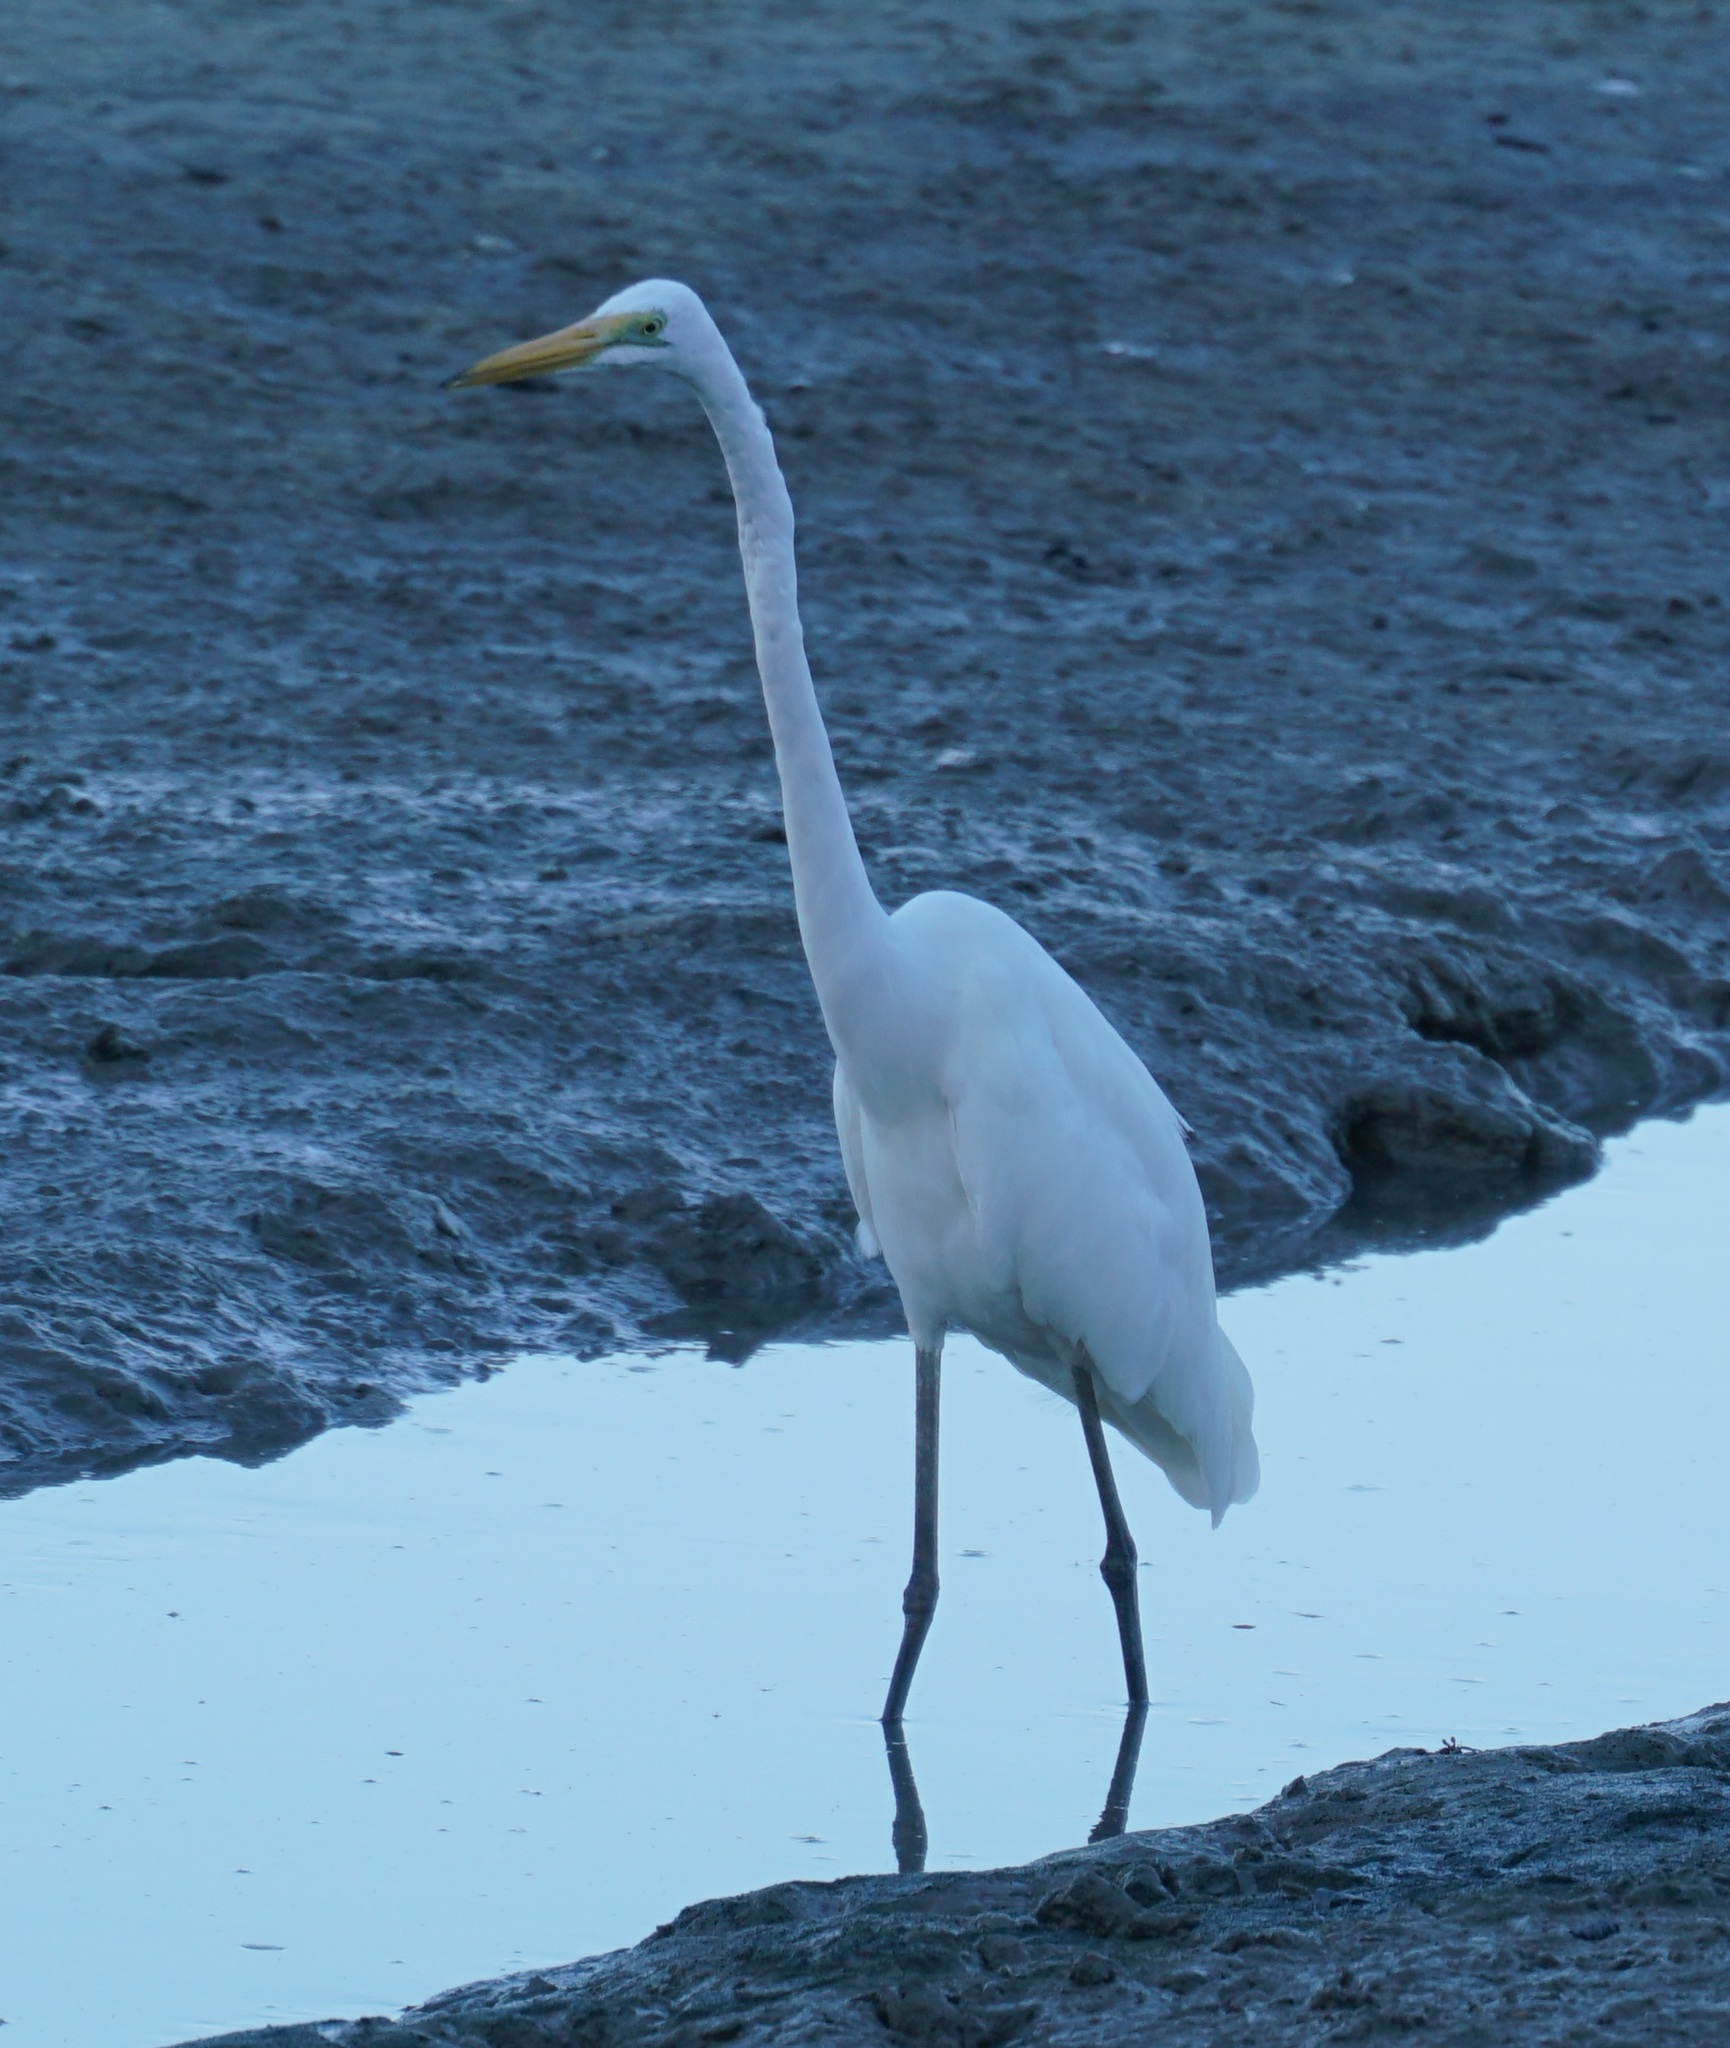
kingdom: Animalia
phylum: Chordata
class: Aves
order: Pelecaniformes
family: Ardeidae
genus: Ardea
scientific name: Ardea modesta
